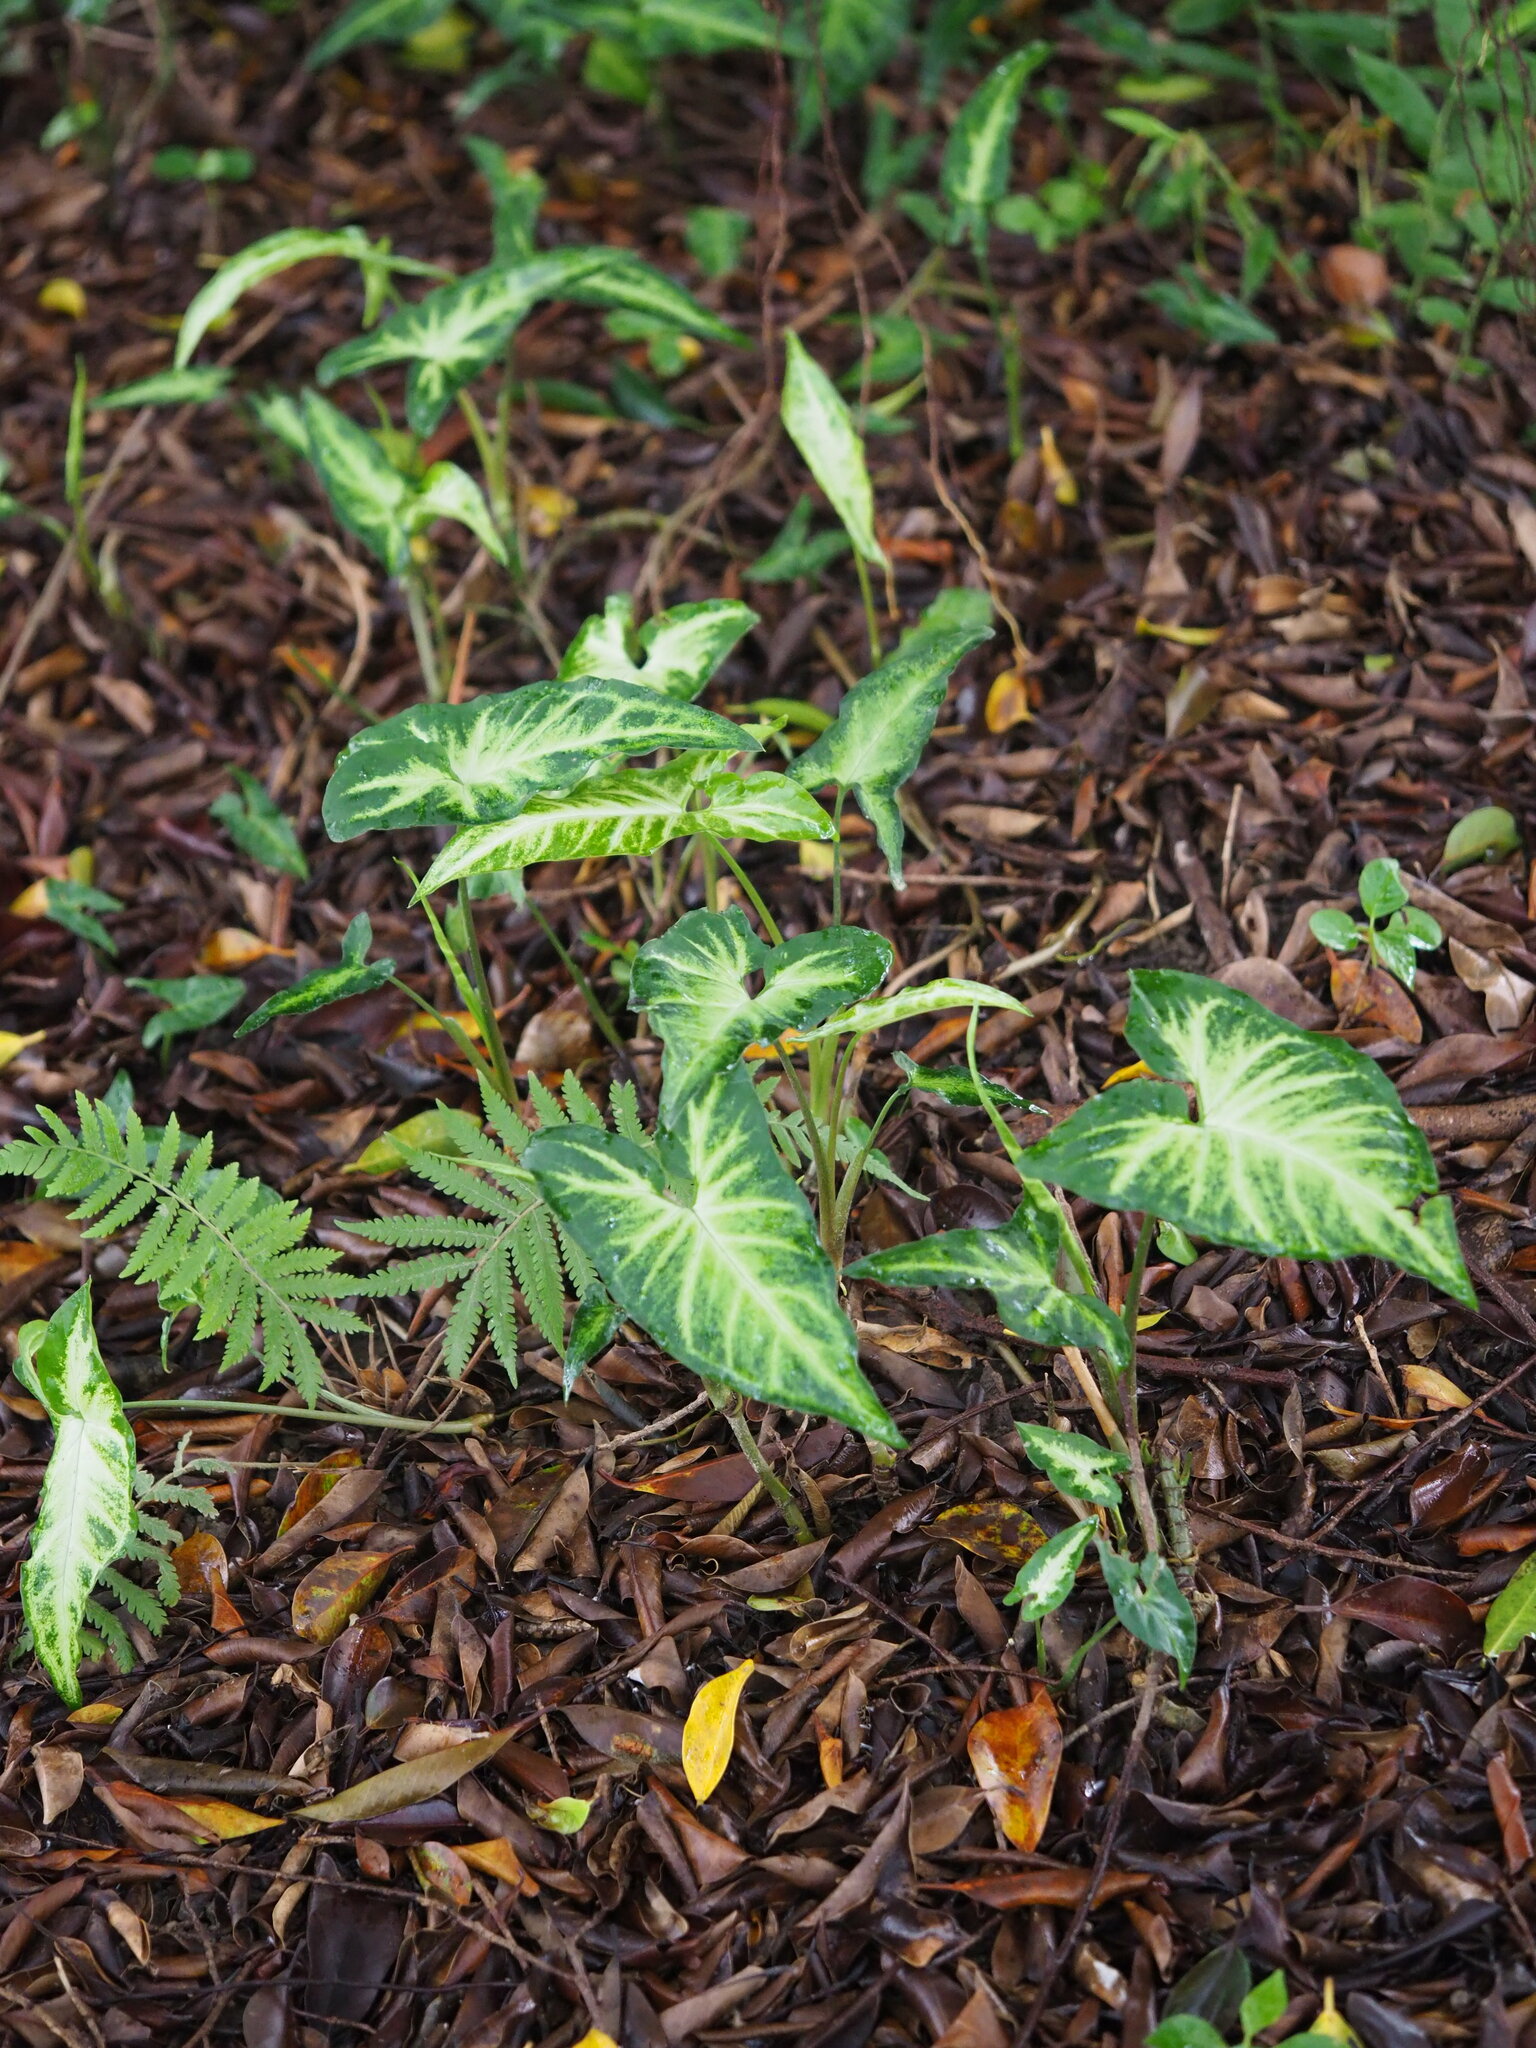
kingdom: Plantae
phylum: Tracheophyta
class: Liliopsida
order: Alismatales
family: Araceae
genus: Syngonium
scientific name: Syngonium podophyllum
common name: American evergreen
